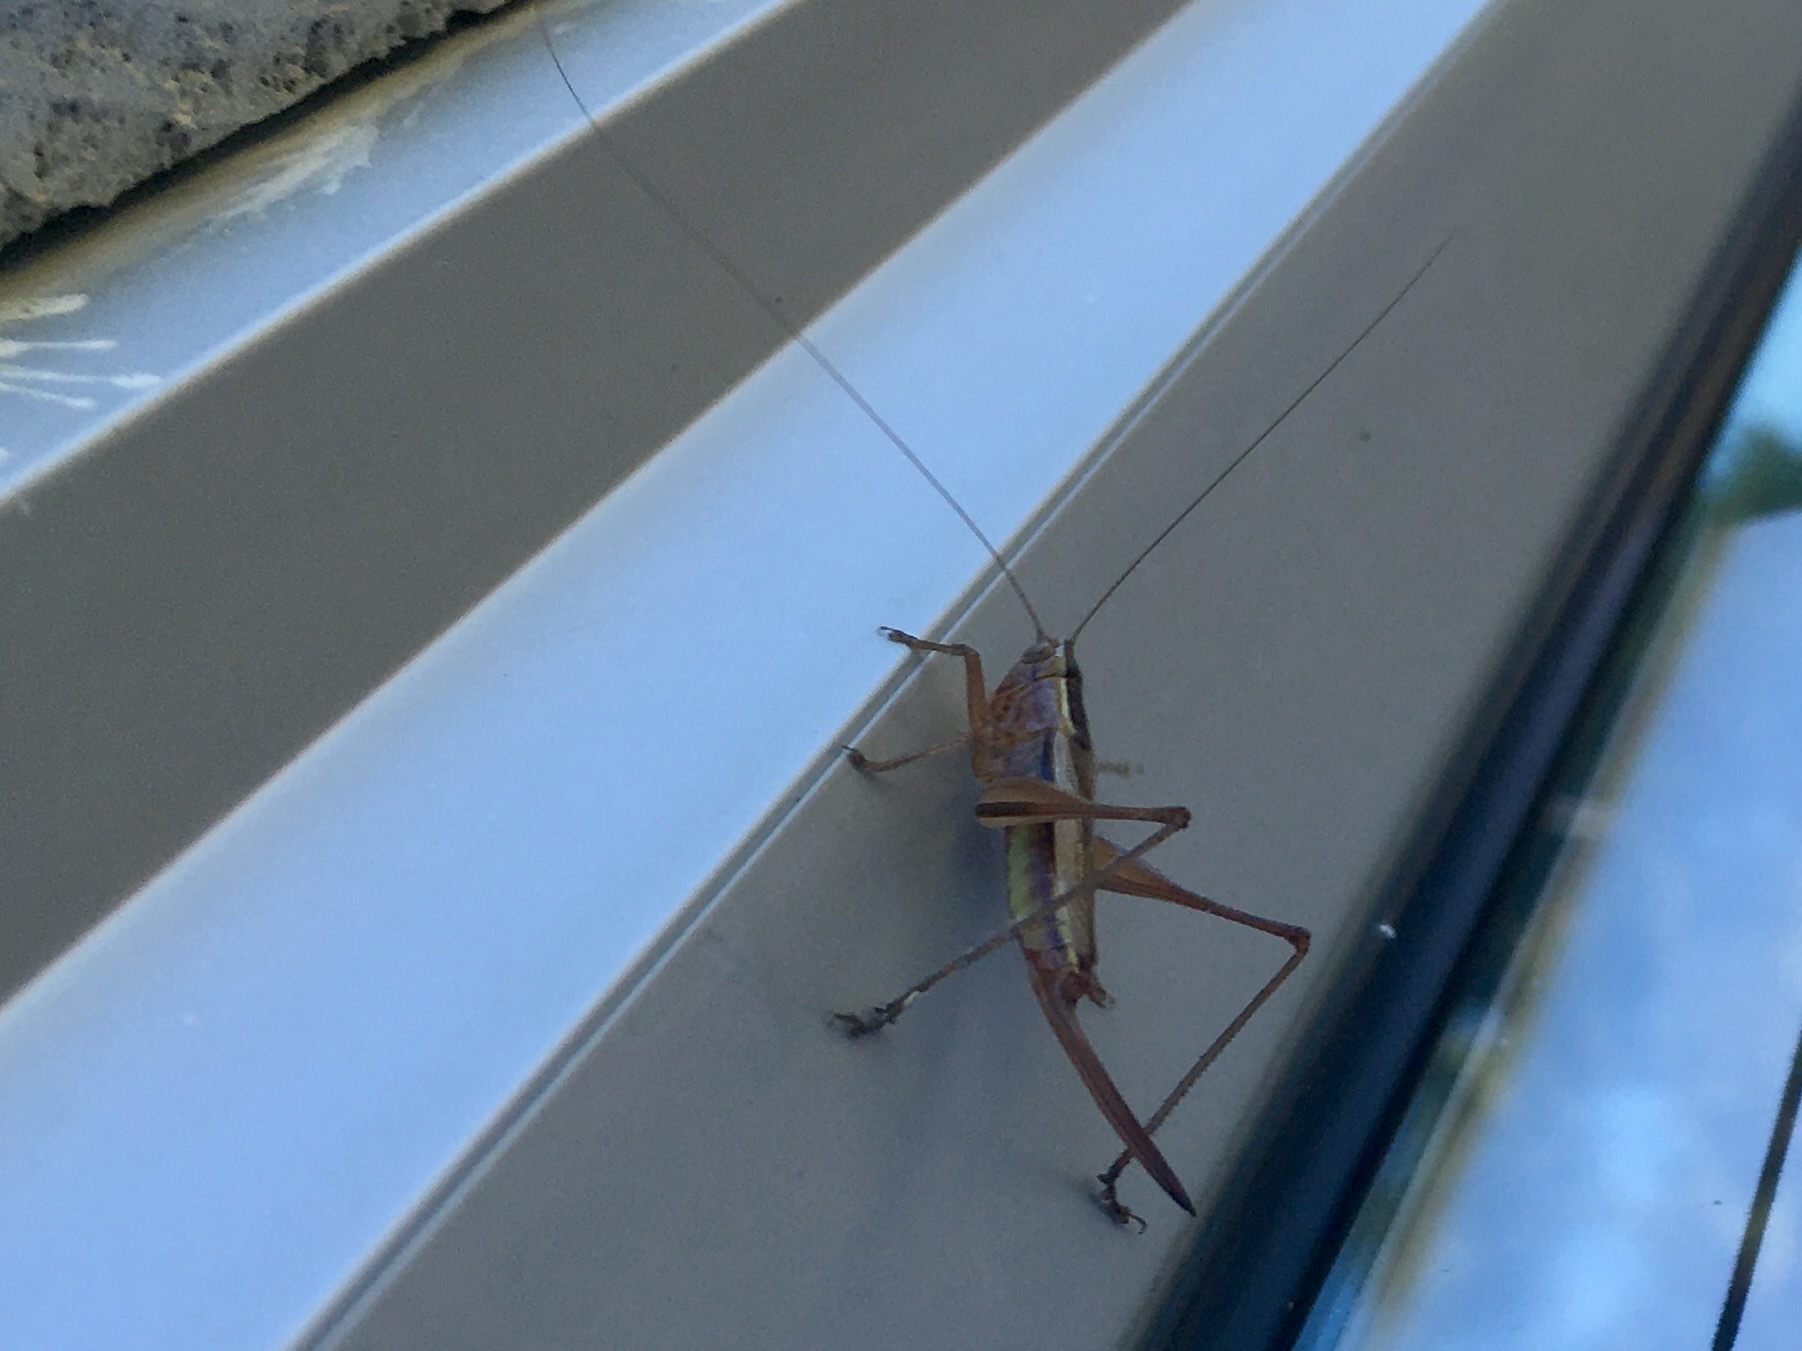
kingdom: Animalia
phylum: Arthropoda
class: Insecta
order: Orthoptera
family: Tettigoniidae
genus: Conocephalus
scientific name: Conocephalus albescens
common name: Whitish meadow katydid
